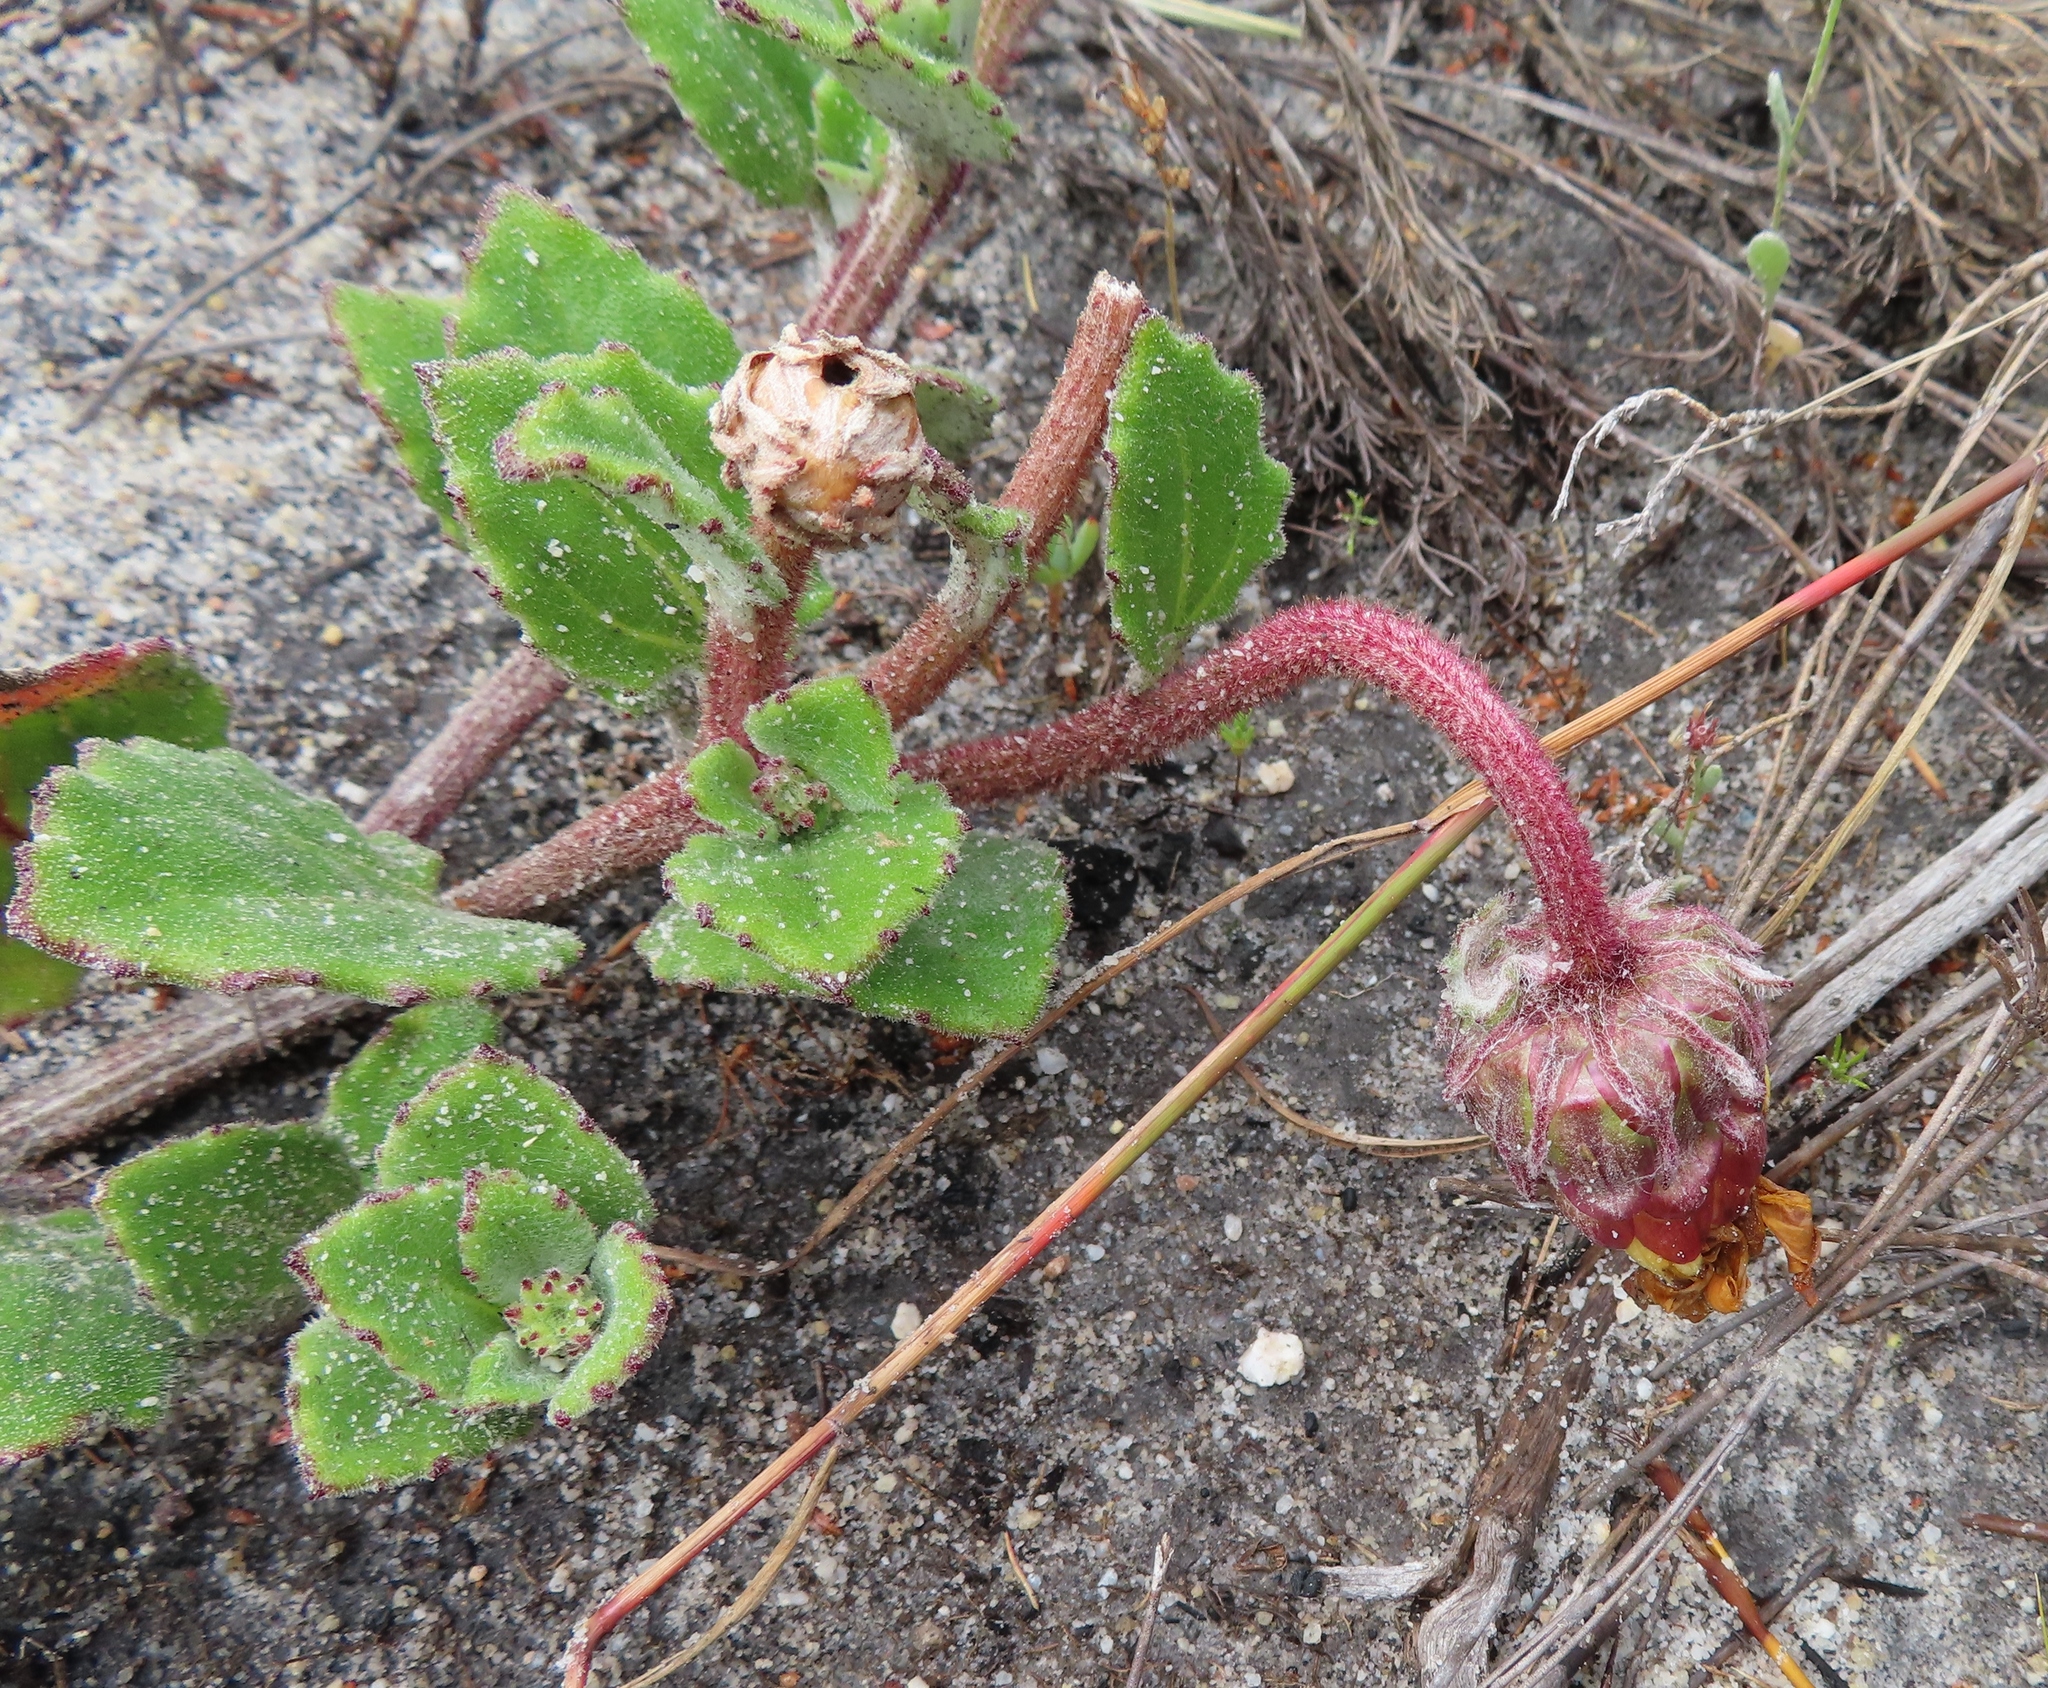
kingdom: Plantae
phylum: Tracheophyta
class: Magnoliopsida
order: Asterales
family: Asteraceae
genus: Arctotis
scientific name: Arctotis angustifolia
